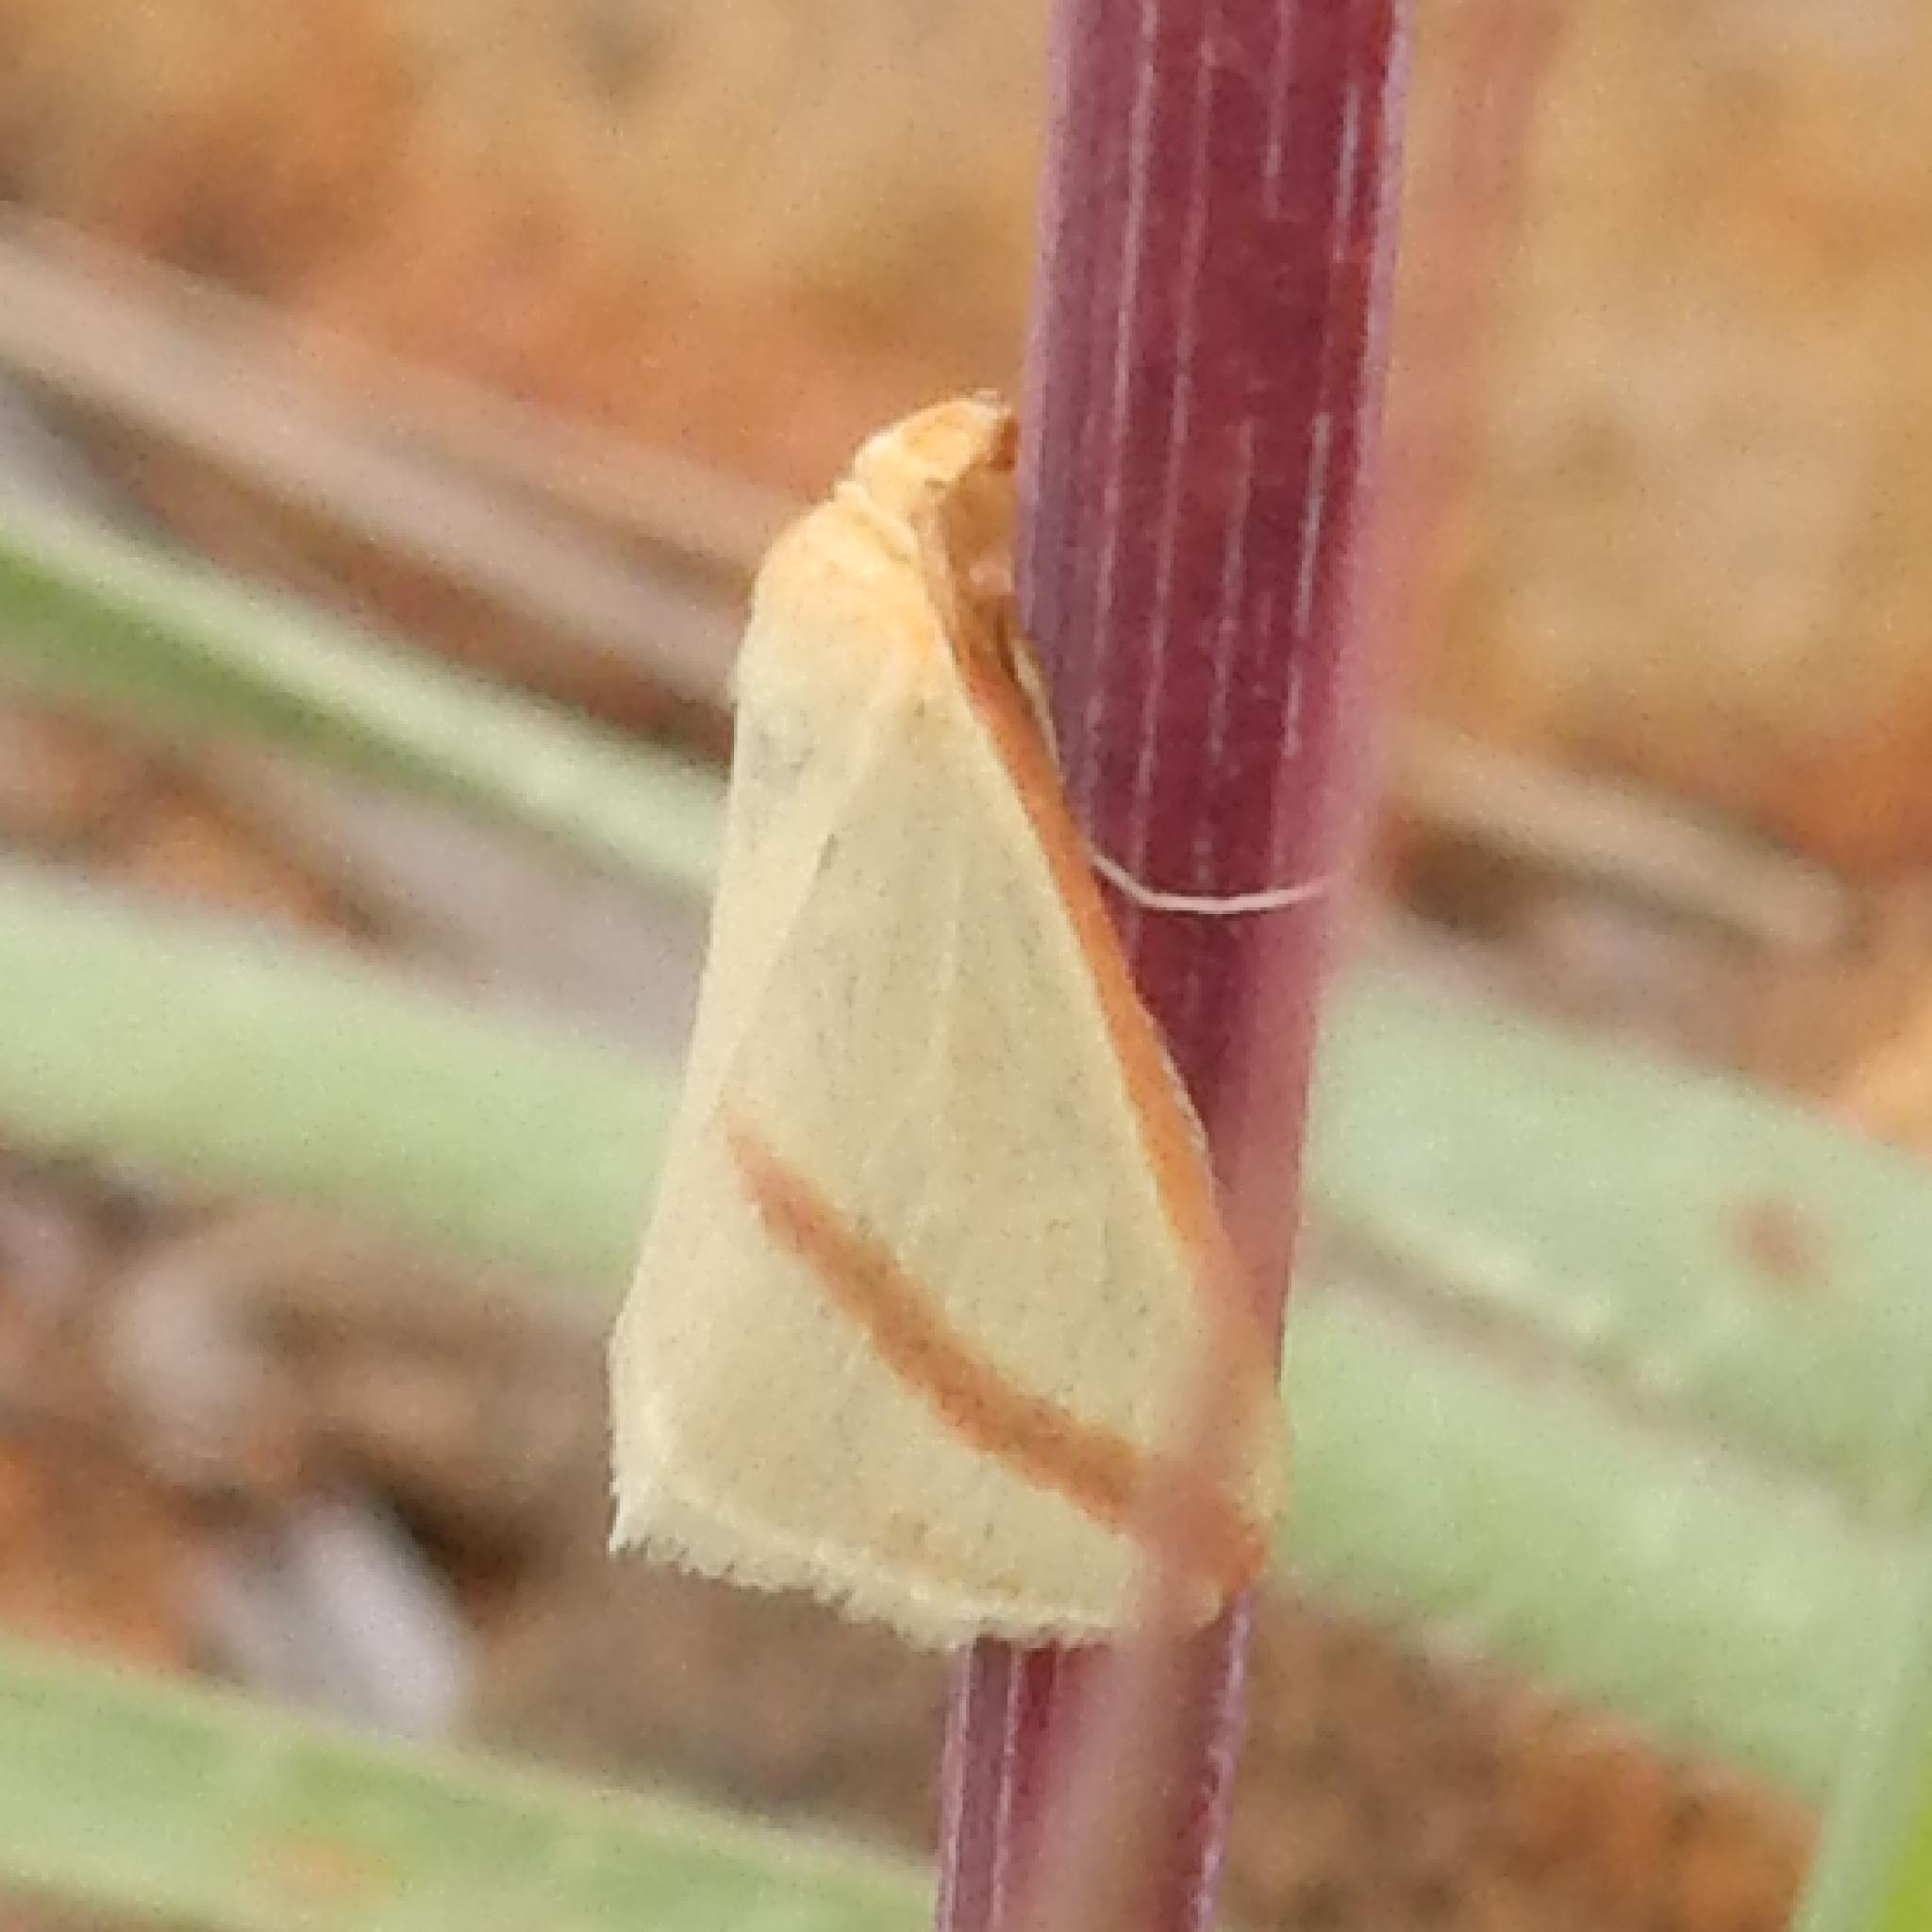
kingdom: Animalia
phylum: Arthropoda
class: Insecta
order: Lepidoptera
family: Geometridae
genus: Rhodometra
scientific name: Rhodometra sacraria
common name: Vestal
